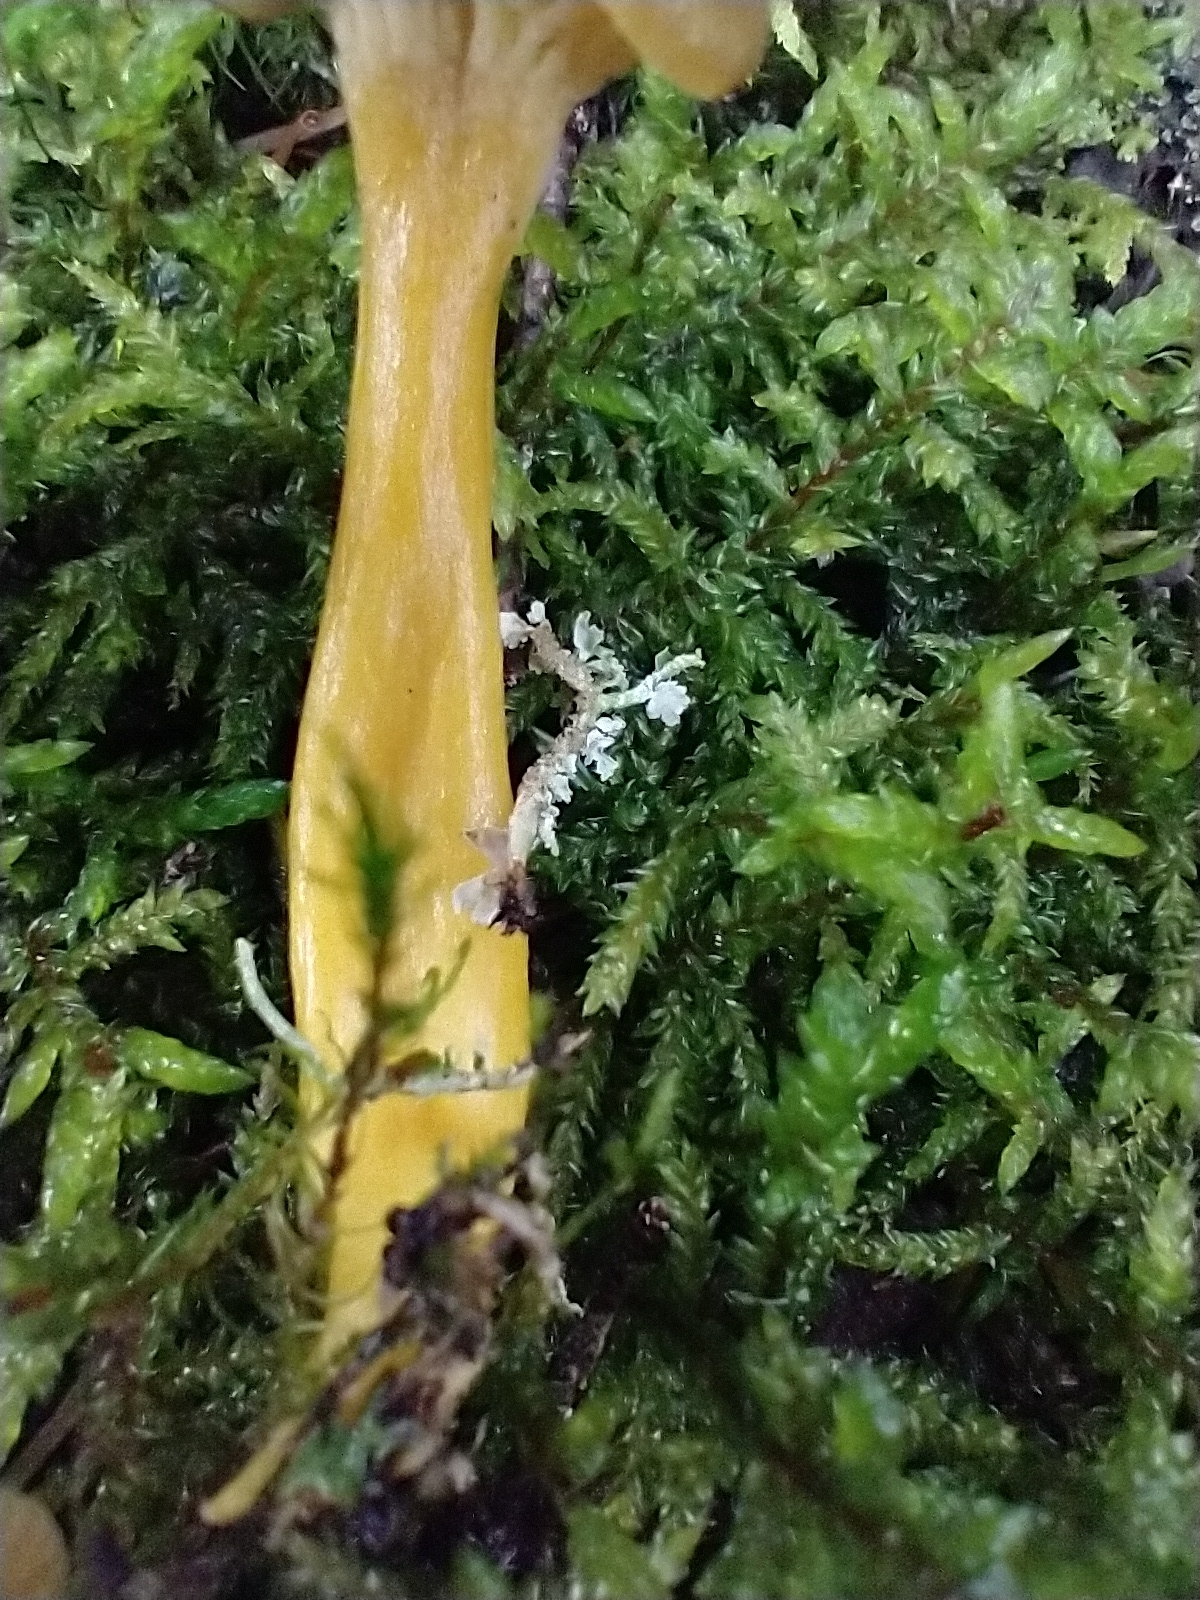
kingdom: Fungi
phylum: Basidiomycota
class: Agaricomycetes
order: Cantharellales
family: Hydnaceae
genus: Craterellus
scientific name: Craterellus tubaeformis
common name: Yellowfoot
